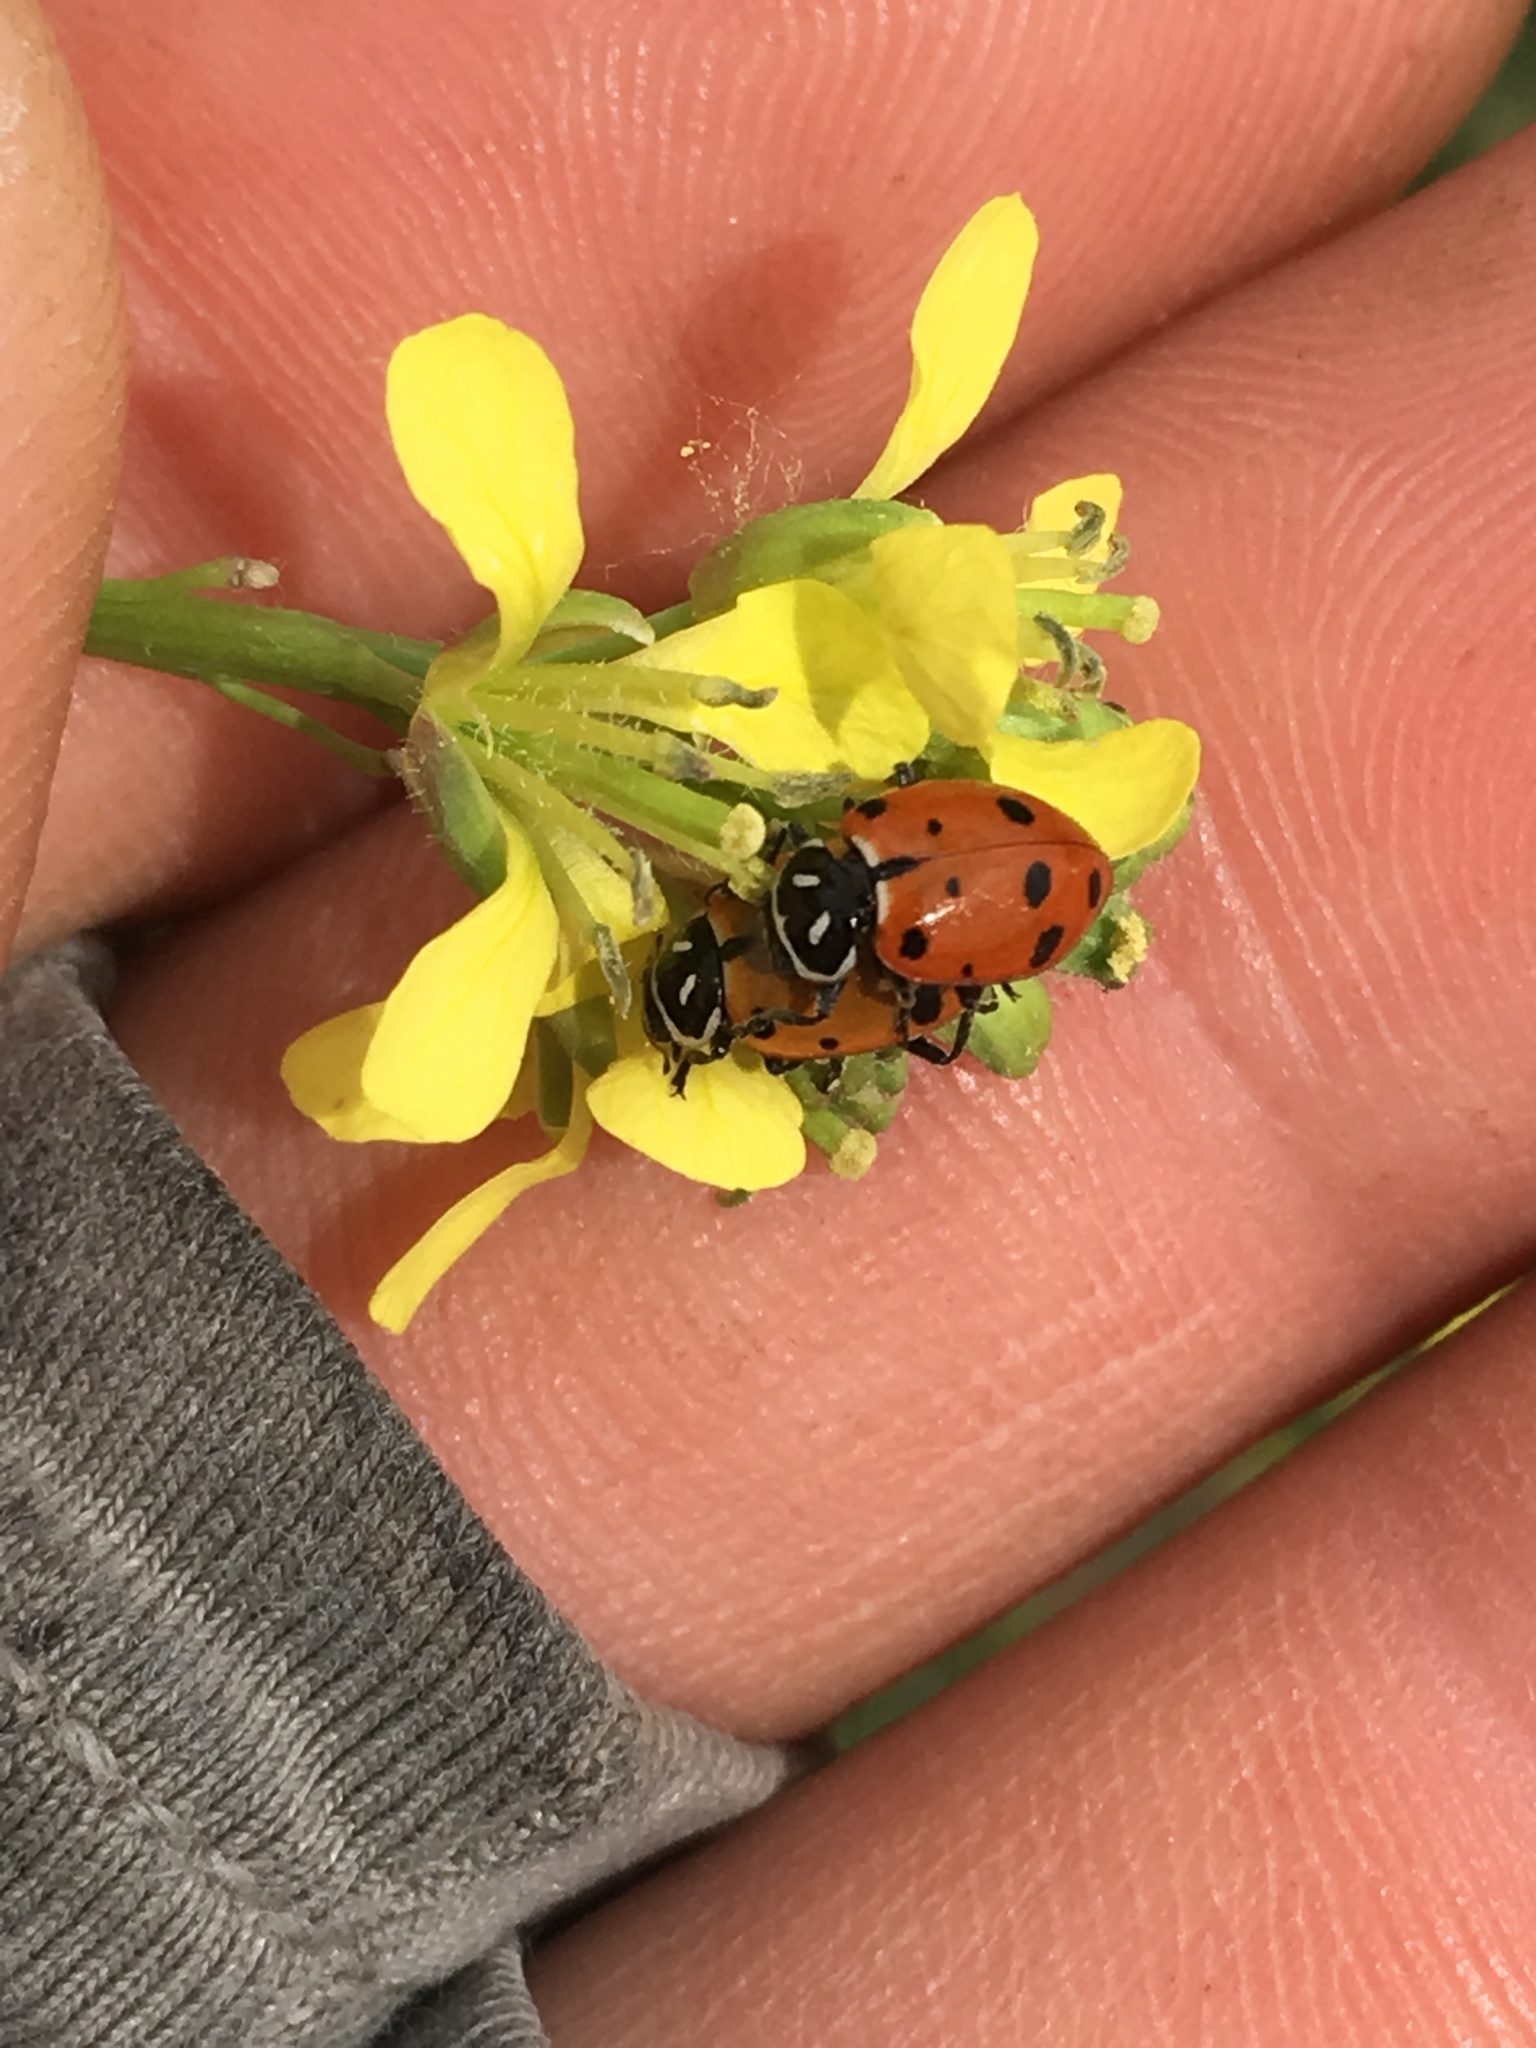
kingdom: Animalia
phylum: Arthropoda
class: Insecta
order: Coleoptera
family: Coccinellidae
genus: Hippodamia
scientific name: Hippodamia convergens
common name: Convergent lady beetle
